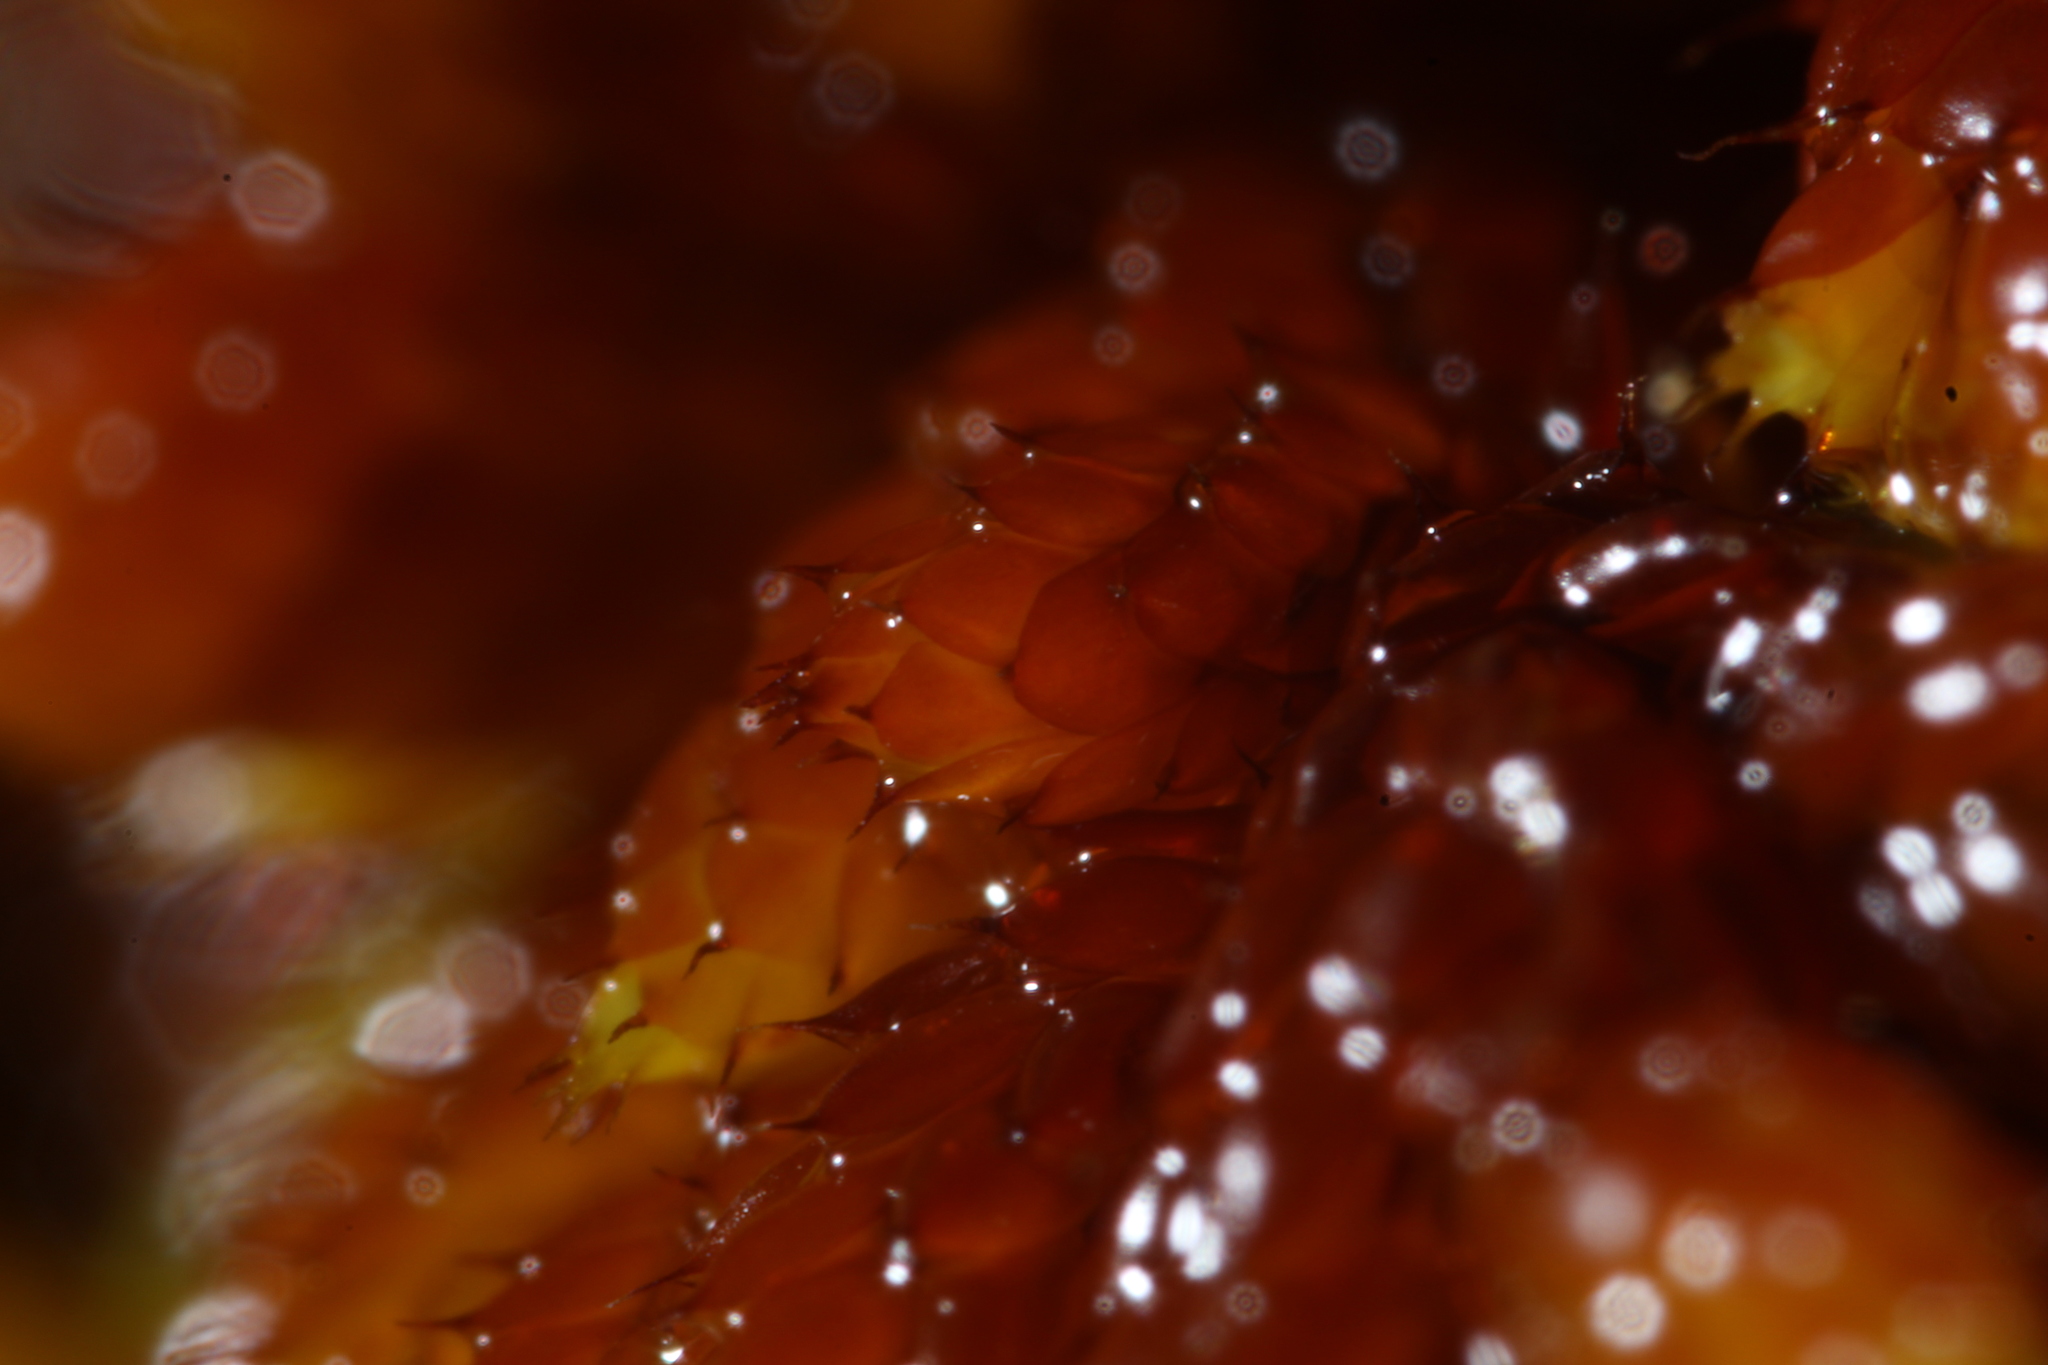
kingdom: Plantae
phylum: Bryophyta
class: Bryopsida
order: Hedwigiales
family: Hedwigiaceae
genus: Rhacocarpus
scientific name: Rhacocarpus purpurascens
